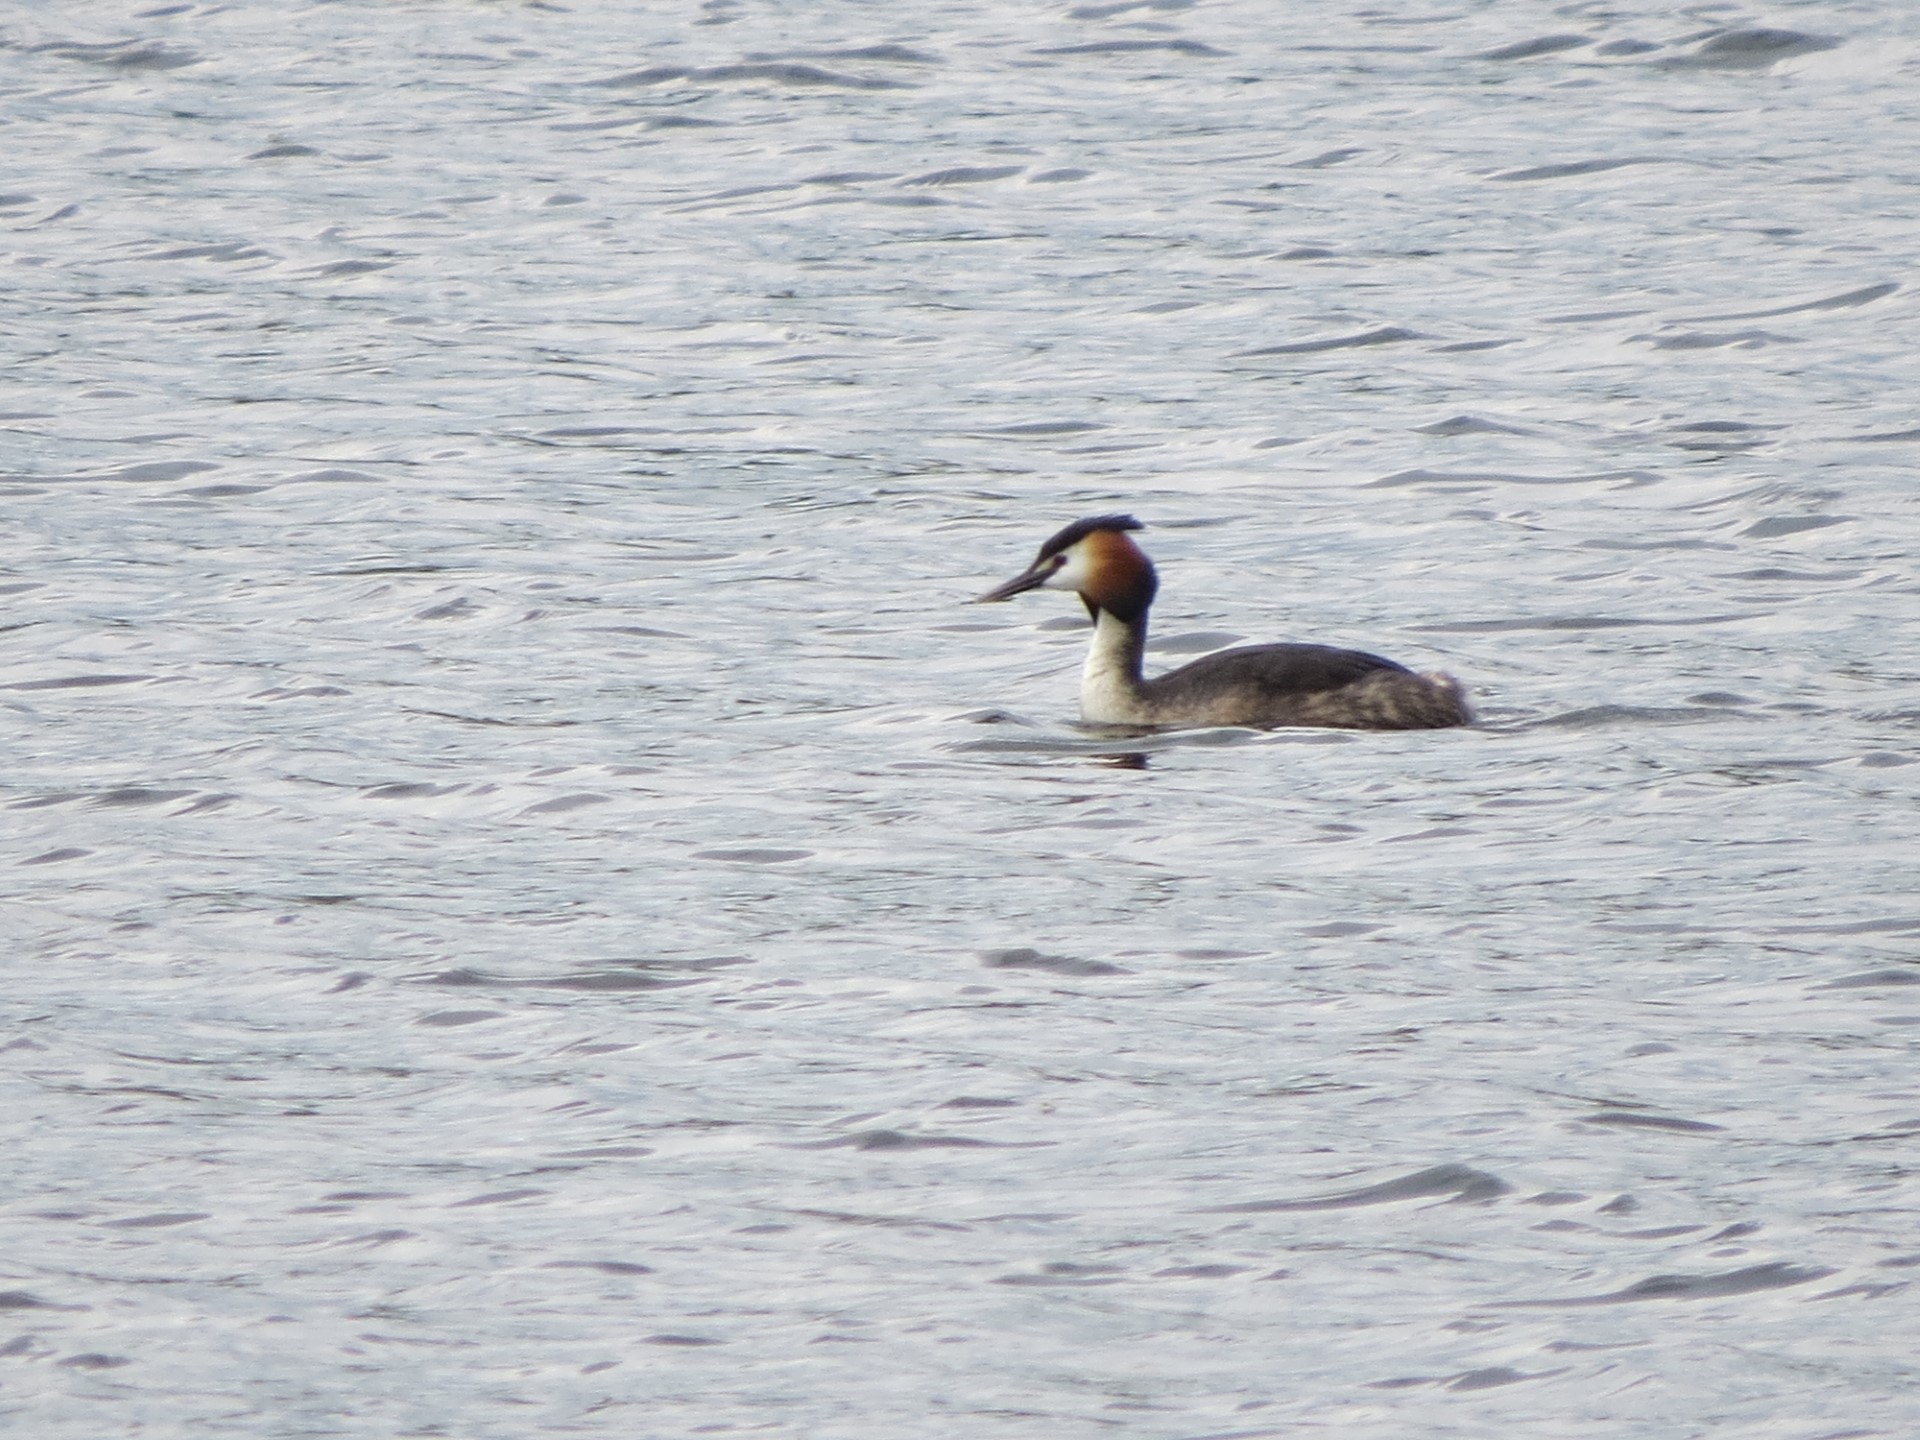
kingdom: Animalia
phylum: Chordata
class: Aves
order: Podicipediformes
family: Podicipedidae
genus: Podiceps
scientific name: Podiceps cristatus
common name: Great crested grebe
